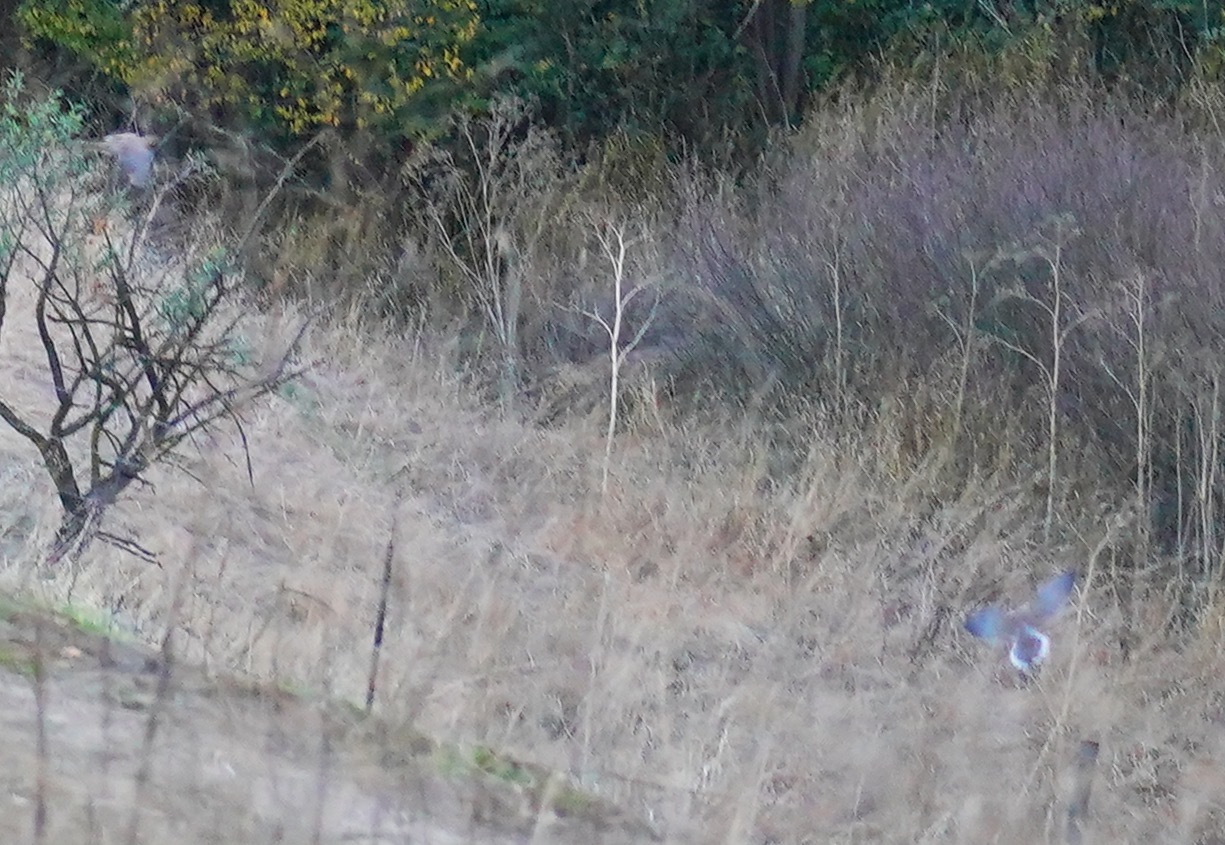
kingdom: Animalia
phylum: Chordata
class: Aves
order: Columbiformes
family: Columbidae
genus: Zenaida
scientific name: Zenaida macroura
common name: Mourning dove
